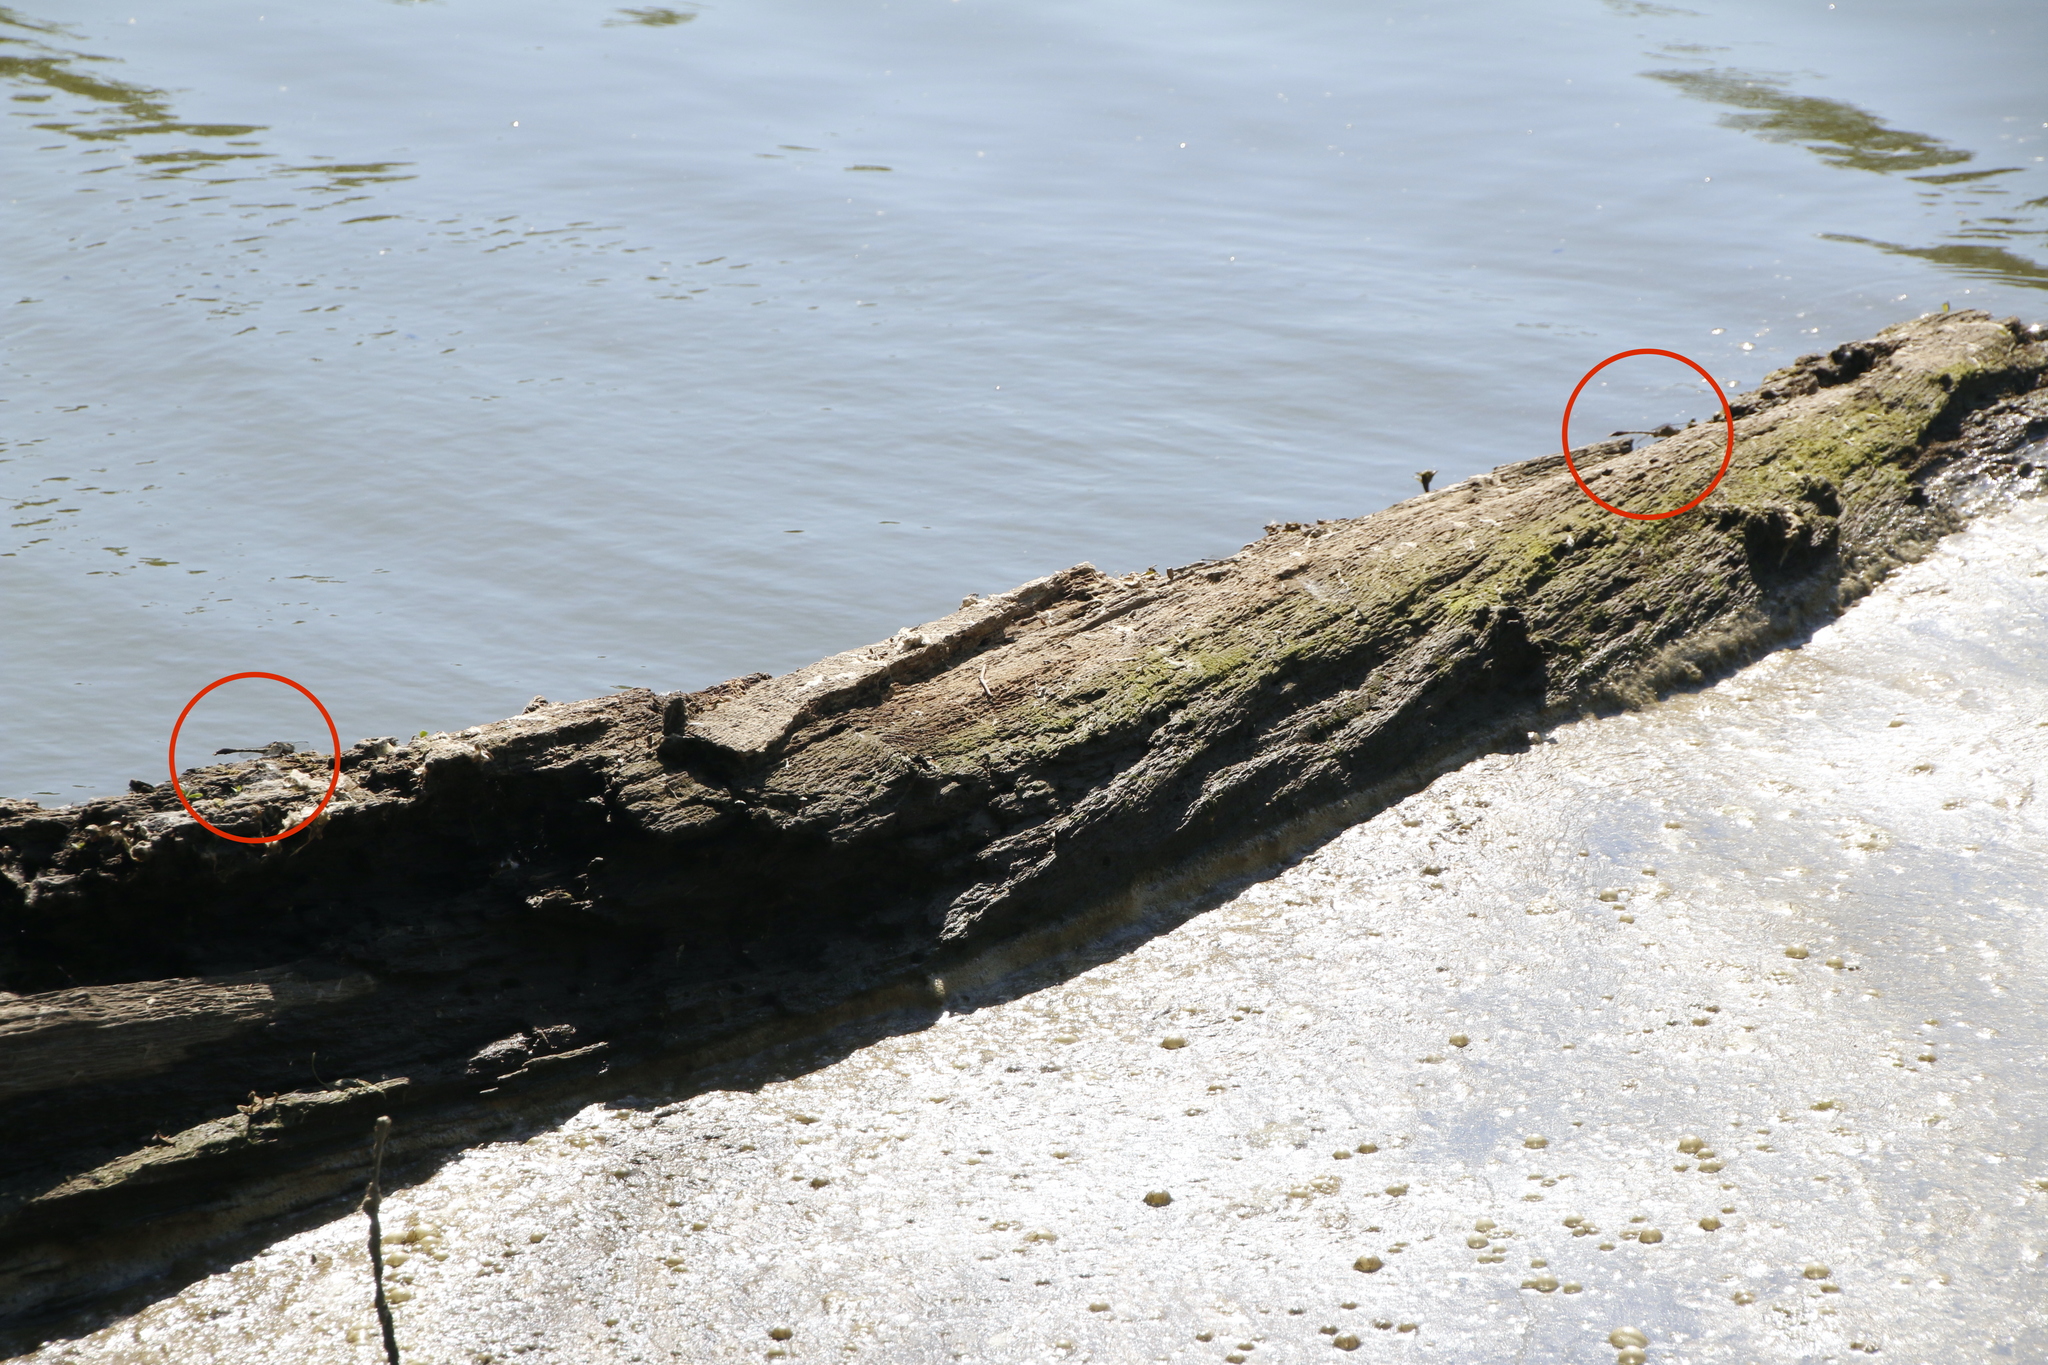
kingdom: Animalia
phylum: Arthropoda
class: Insecta
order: Odonata
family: Gomphidae
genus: Arigomphus
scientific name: Arigomphus submedianus
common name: Jade clubtail
